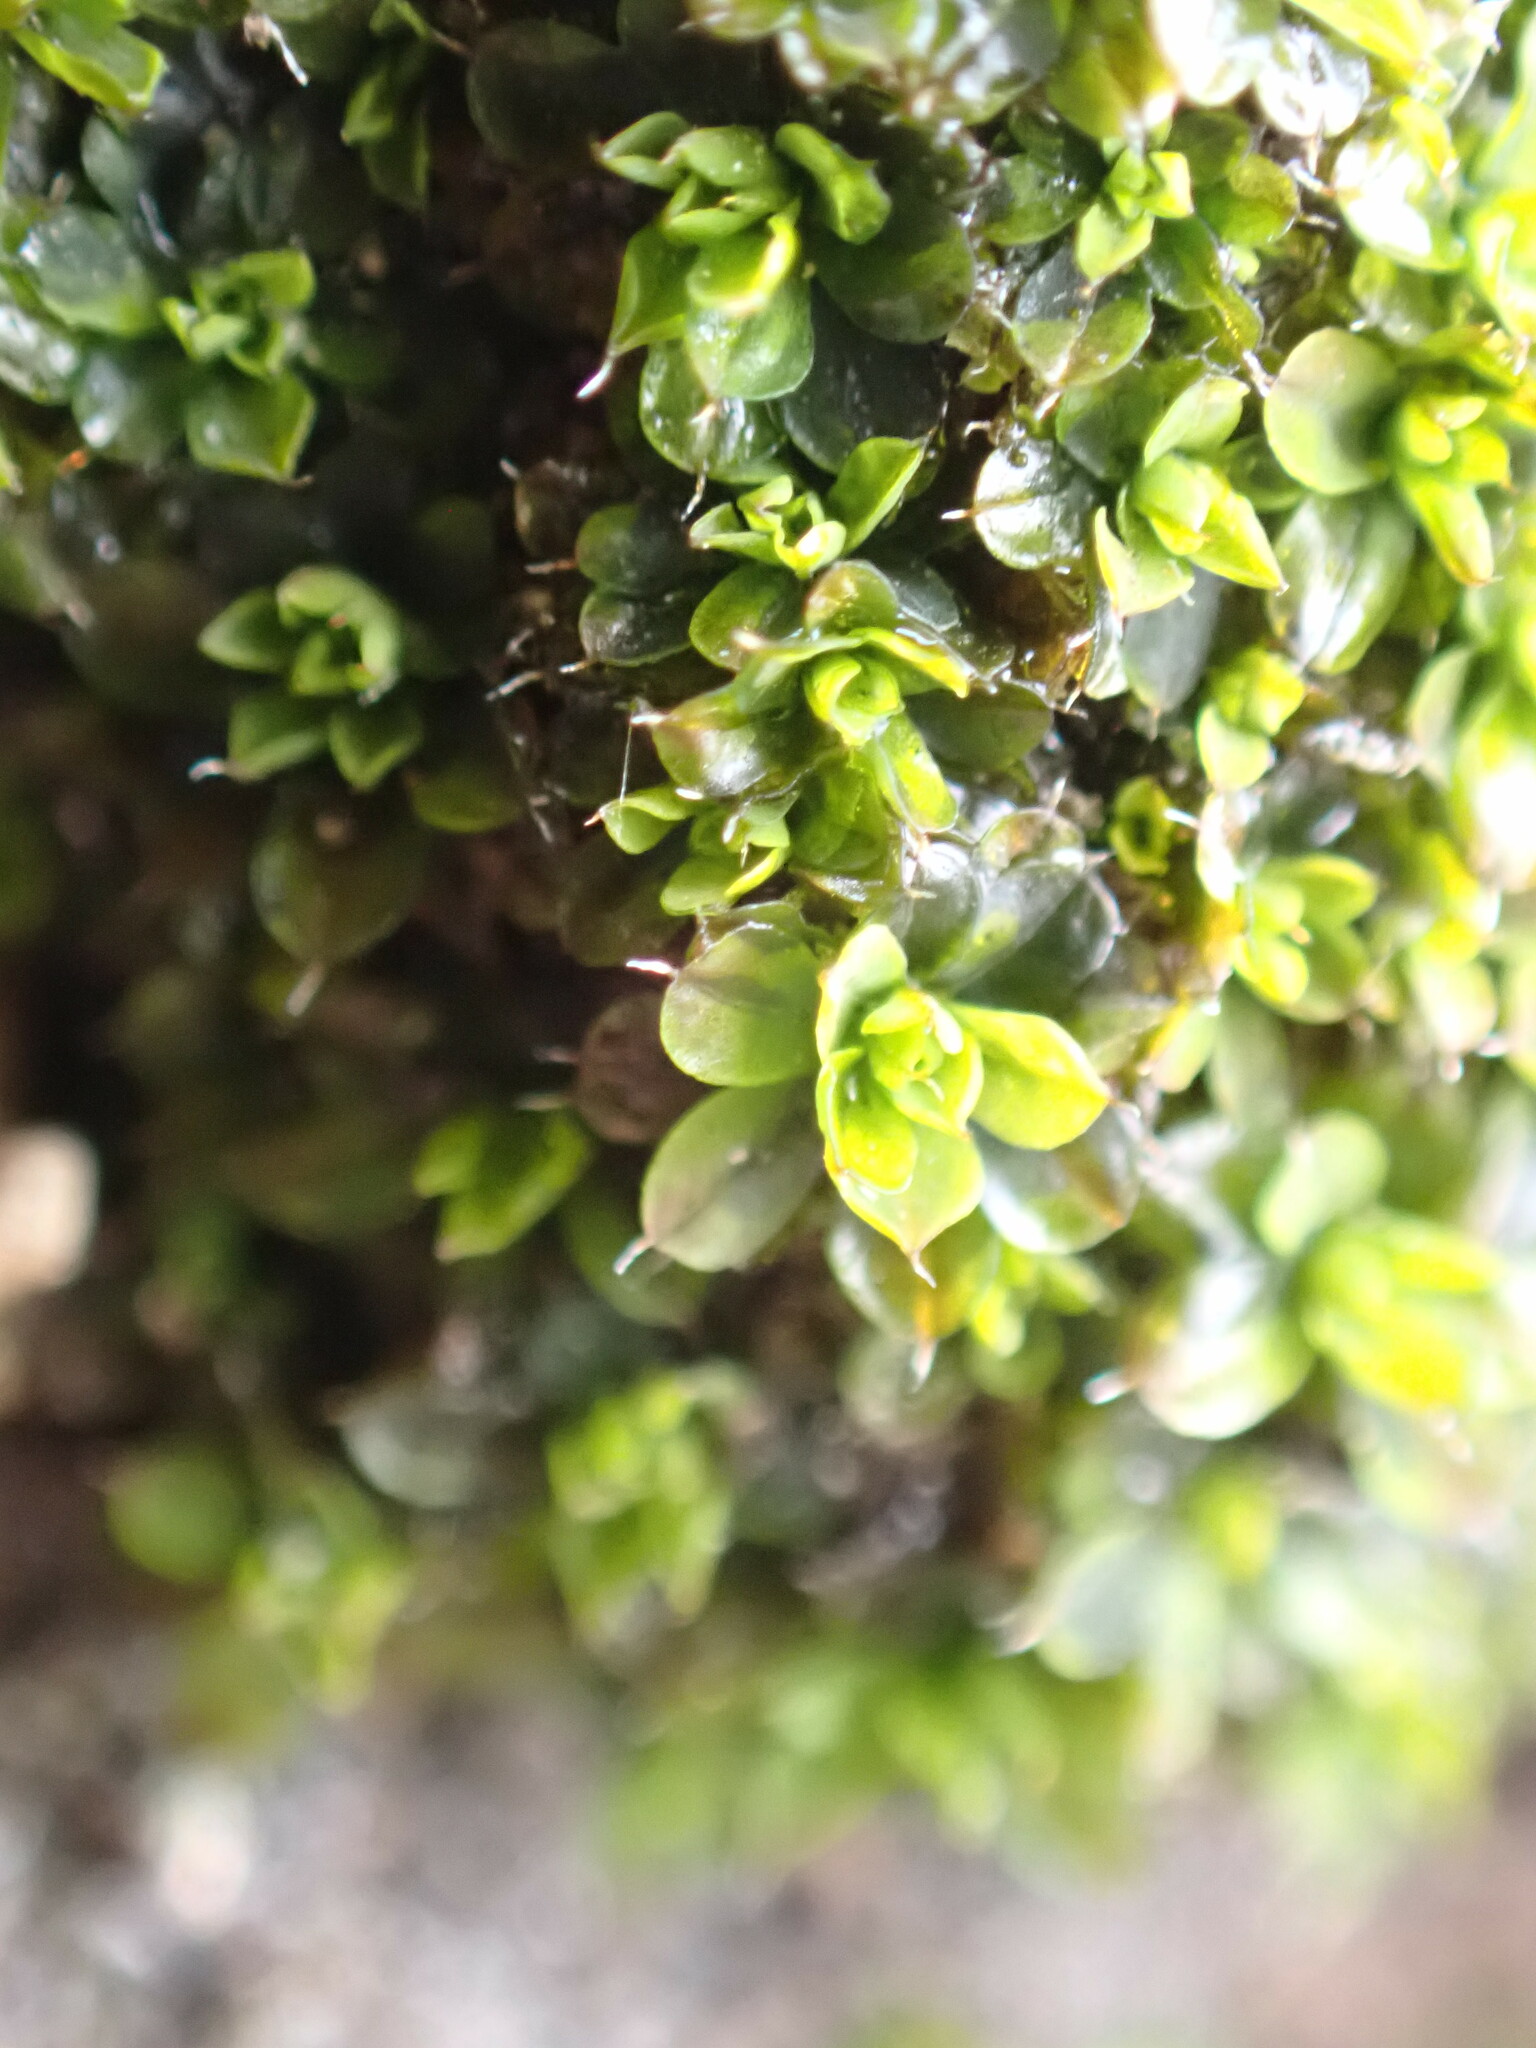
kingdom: Plantae
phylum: Bryophyta
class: Bryopsida
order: Pottiales
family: Pottiaceae
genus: Syntrichia
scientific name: Syntrichia pagorum
